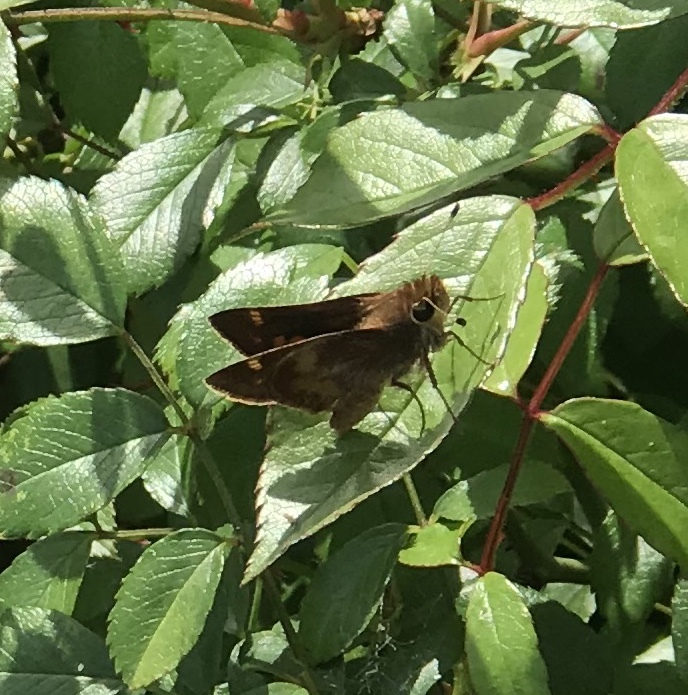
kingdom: Animalia
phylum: Arthropoda
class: Insecta
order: Lepidoptera
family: Hesperiidae
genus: Lon
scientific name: Lon melane
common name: Umber skipper
